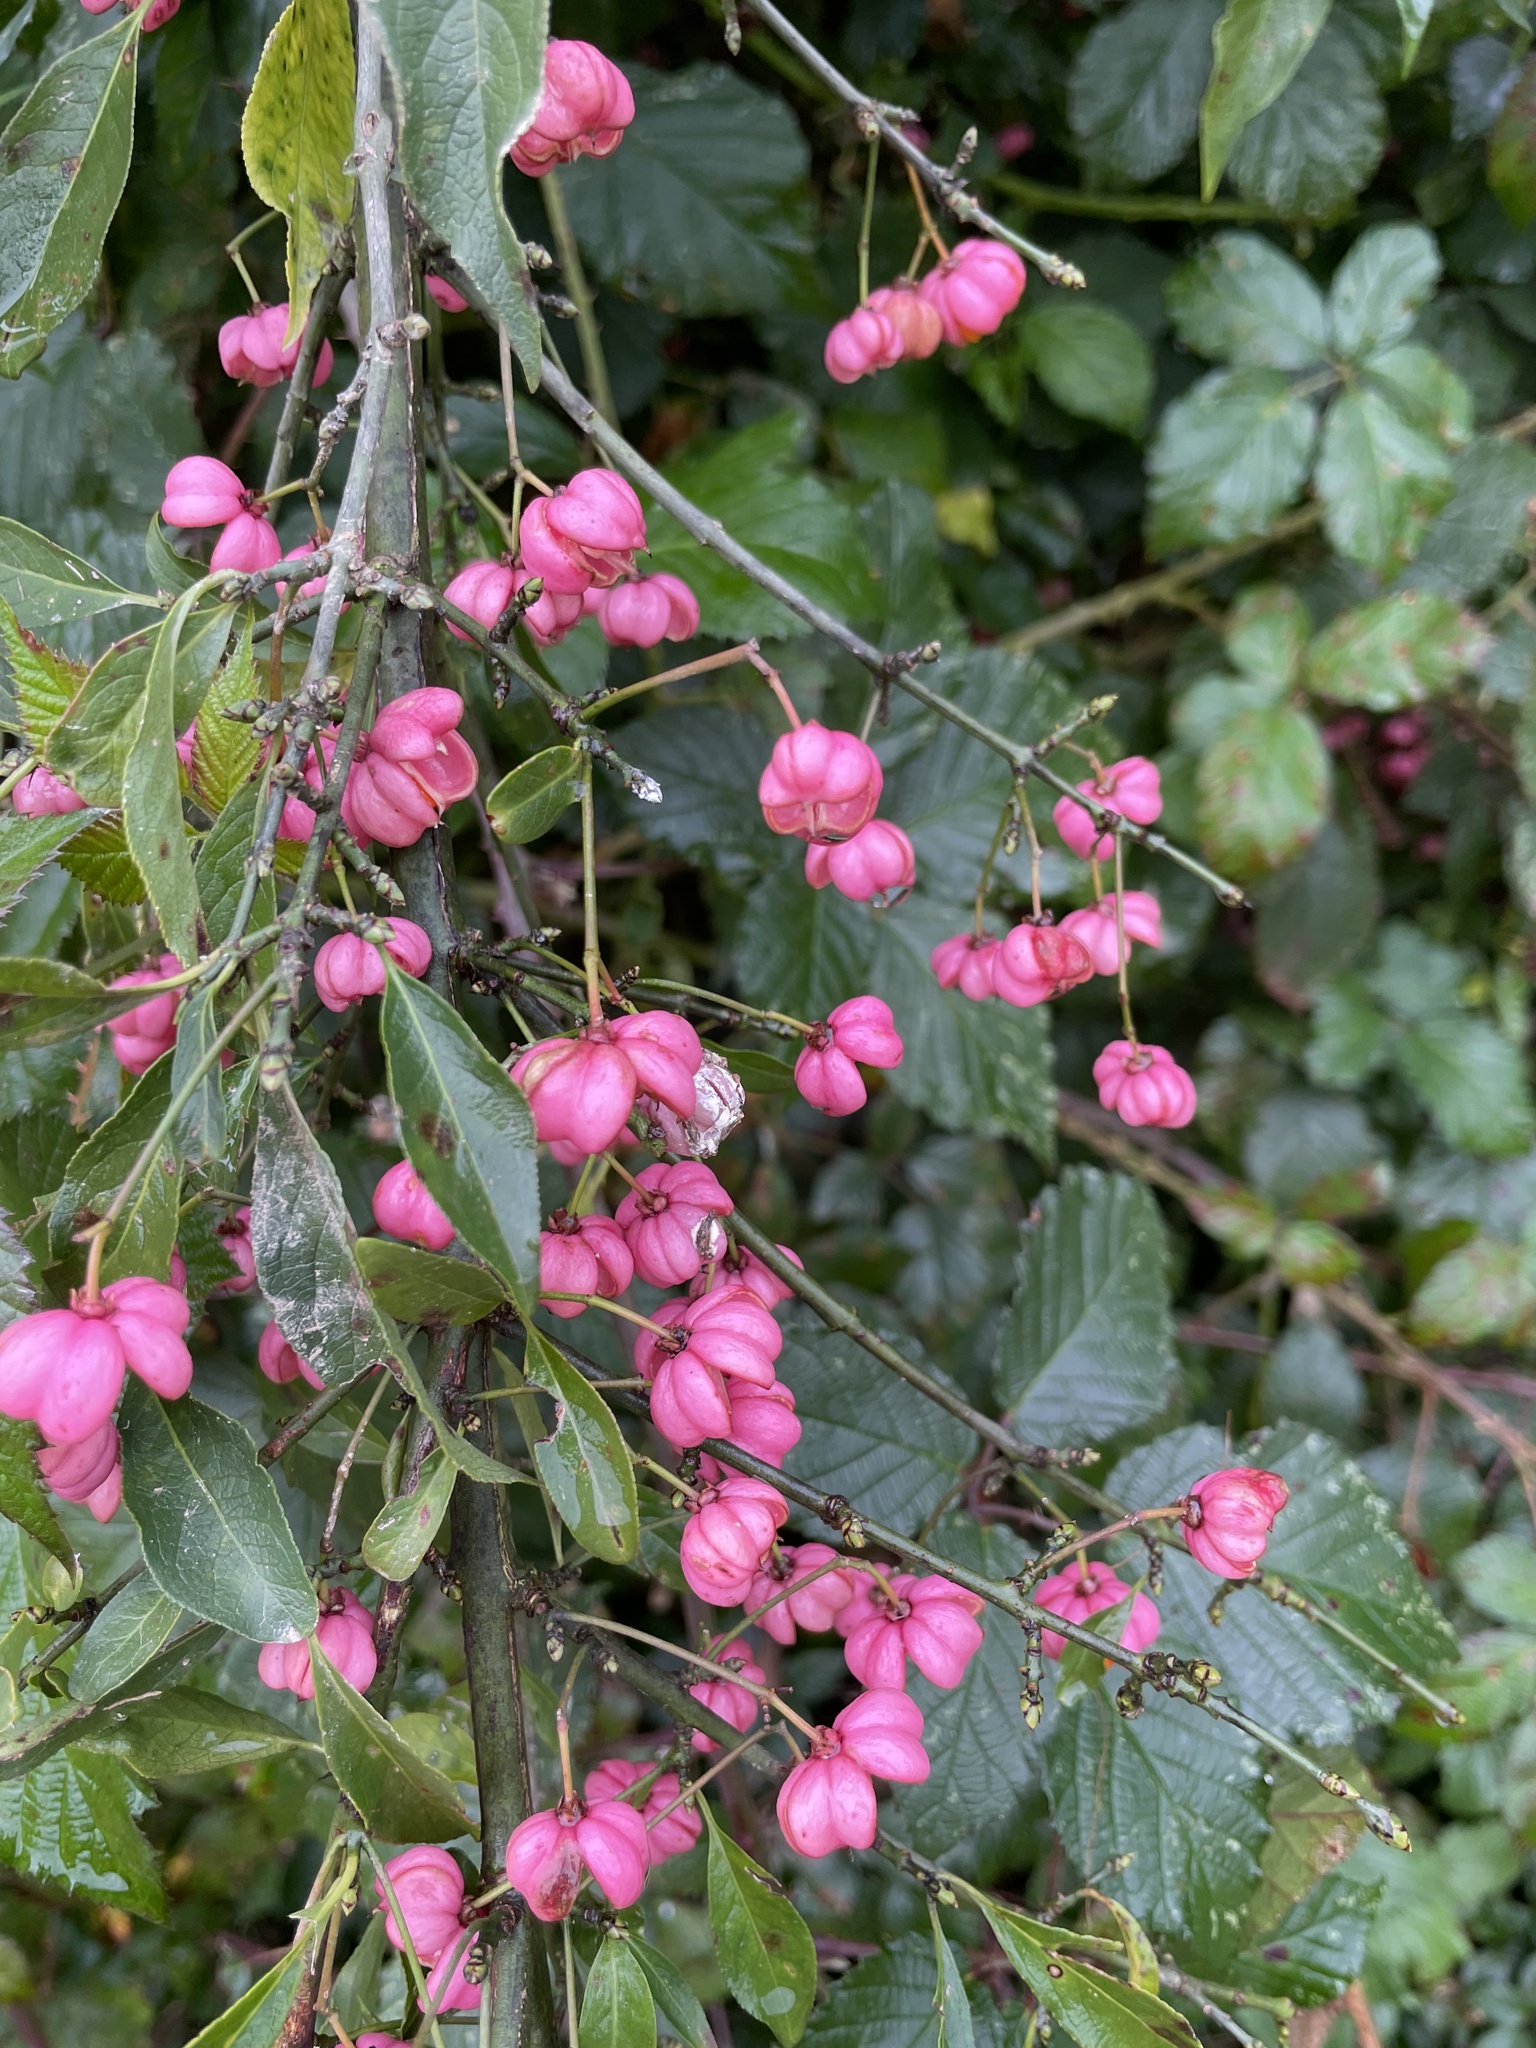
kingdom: Plantae
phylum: Tracheophyta
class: Magnoliopsida
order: Celastrales
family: Celastraceae
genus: Euonymus
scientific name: Euonymus europaeus
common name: Spindle
